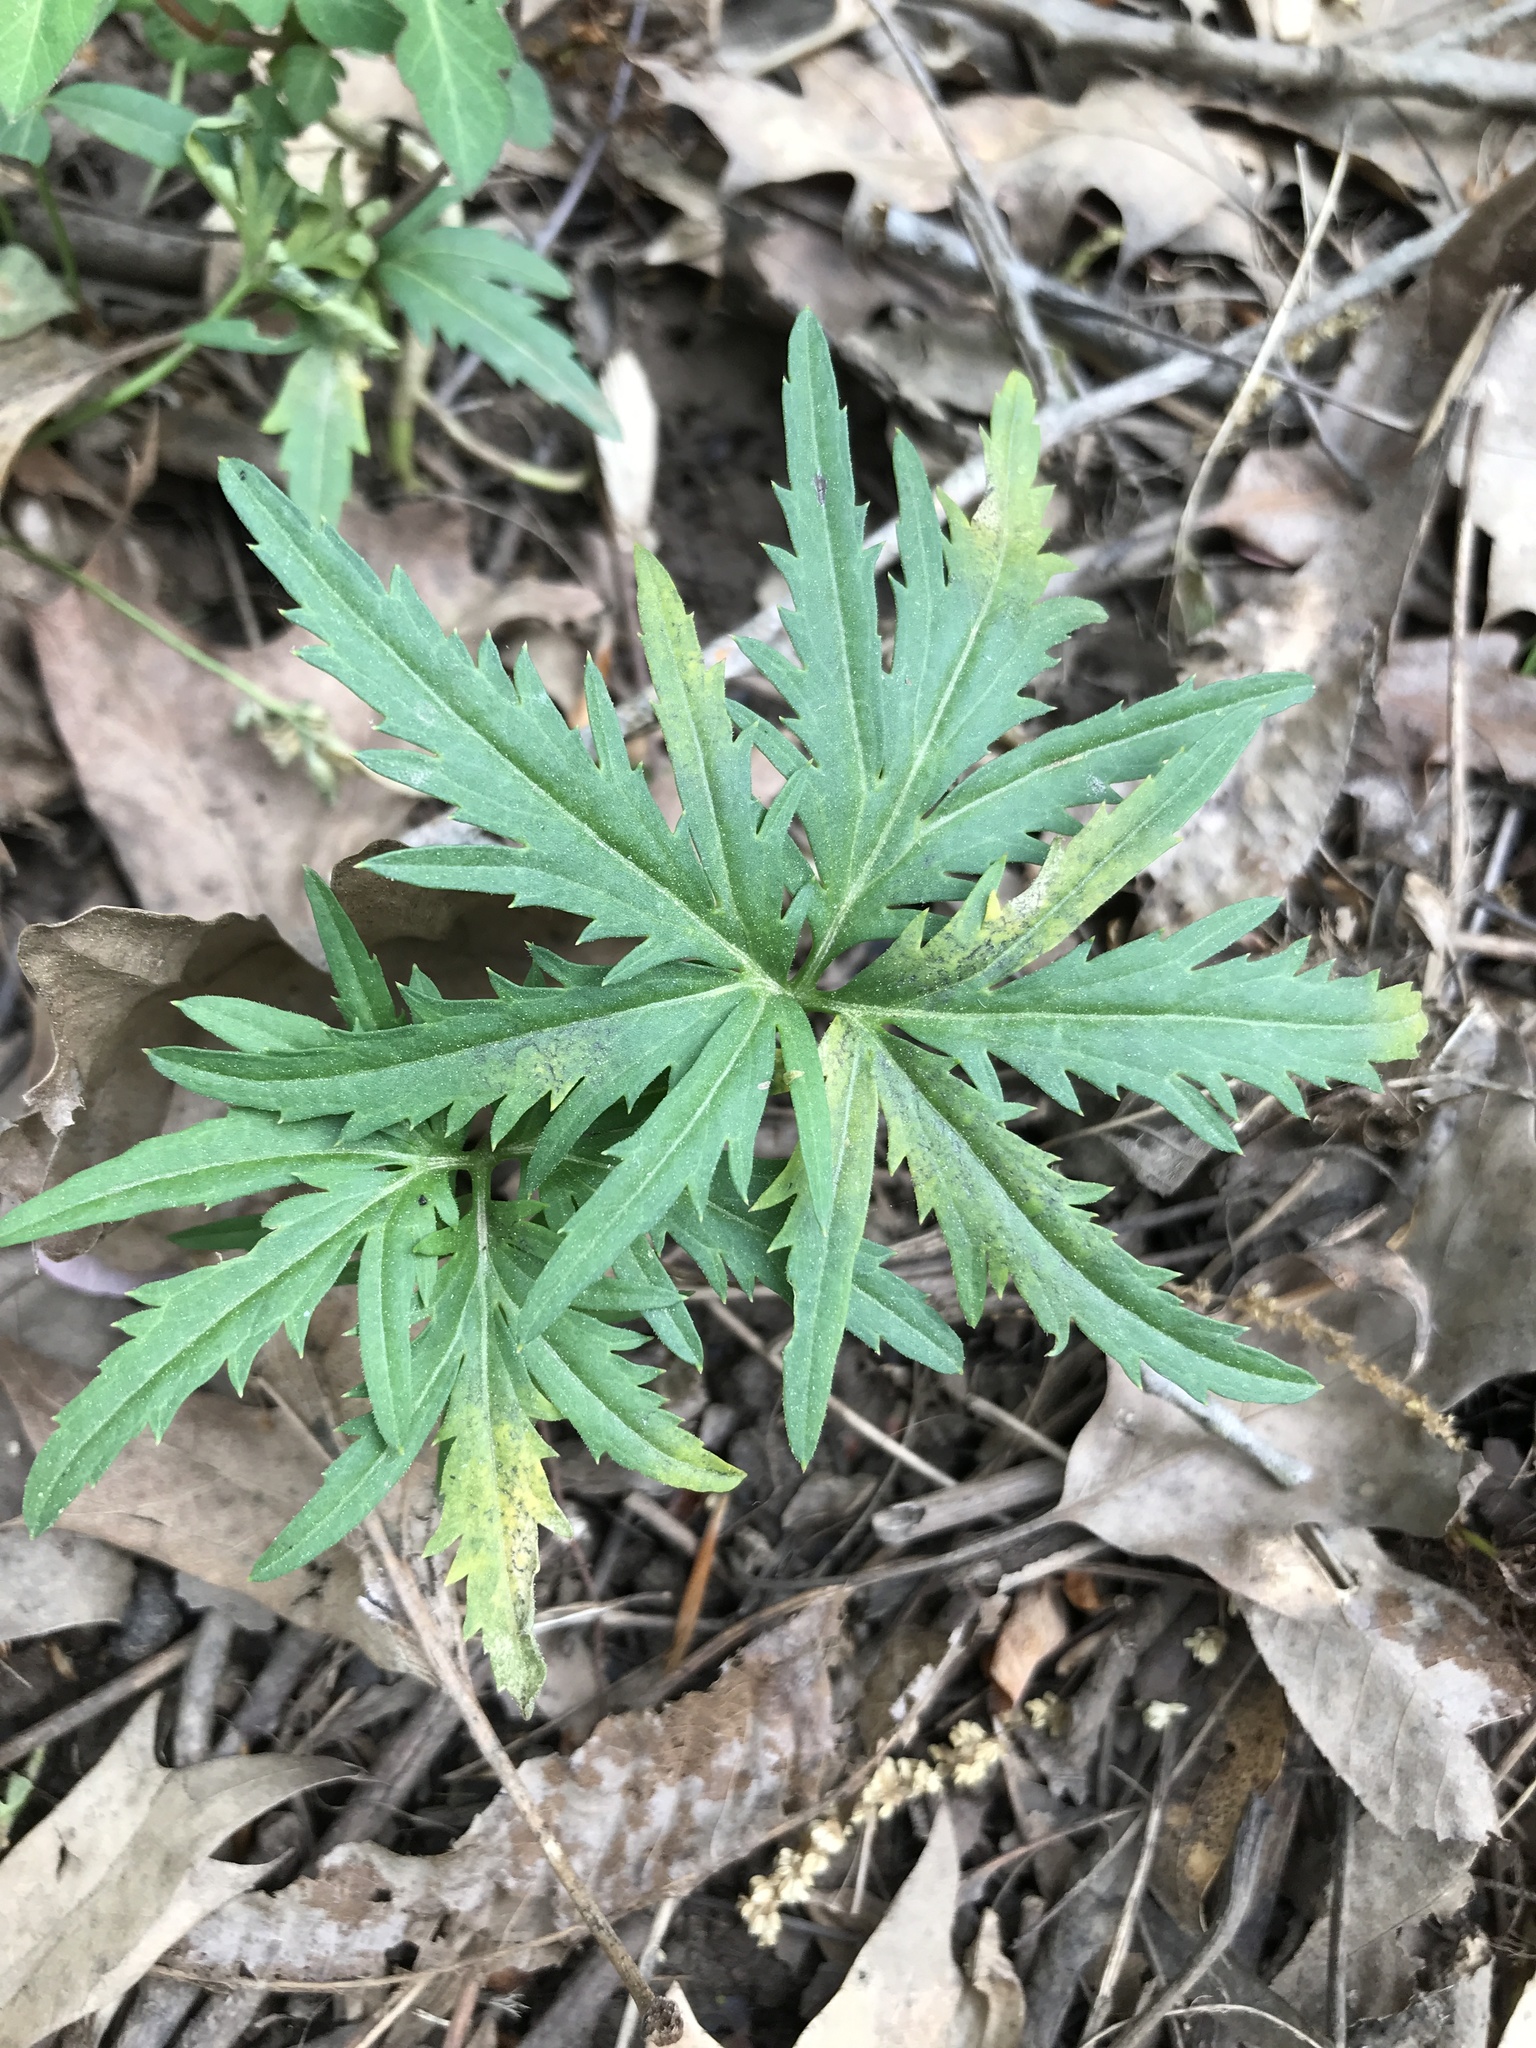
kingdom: Plantae
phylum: Tracheophyta
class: Magnoliopsida
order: Brassicales
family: Brassicaceae
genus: Cardamine
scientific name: Cardamine concatenata
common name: Cut-leaf toothcup
